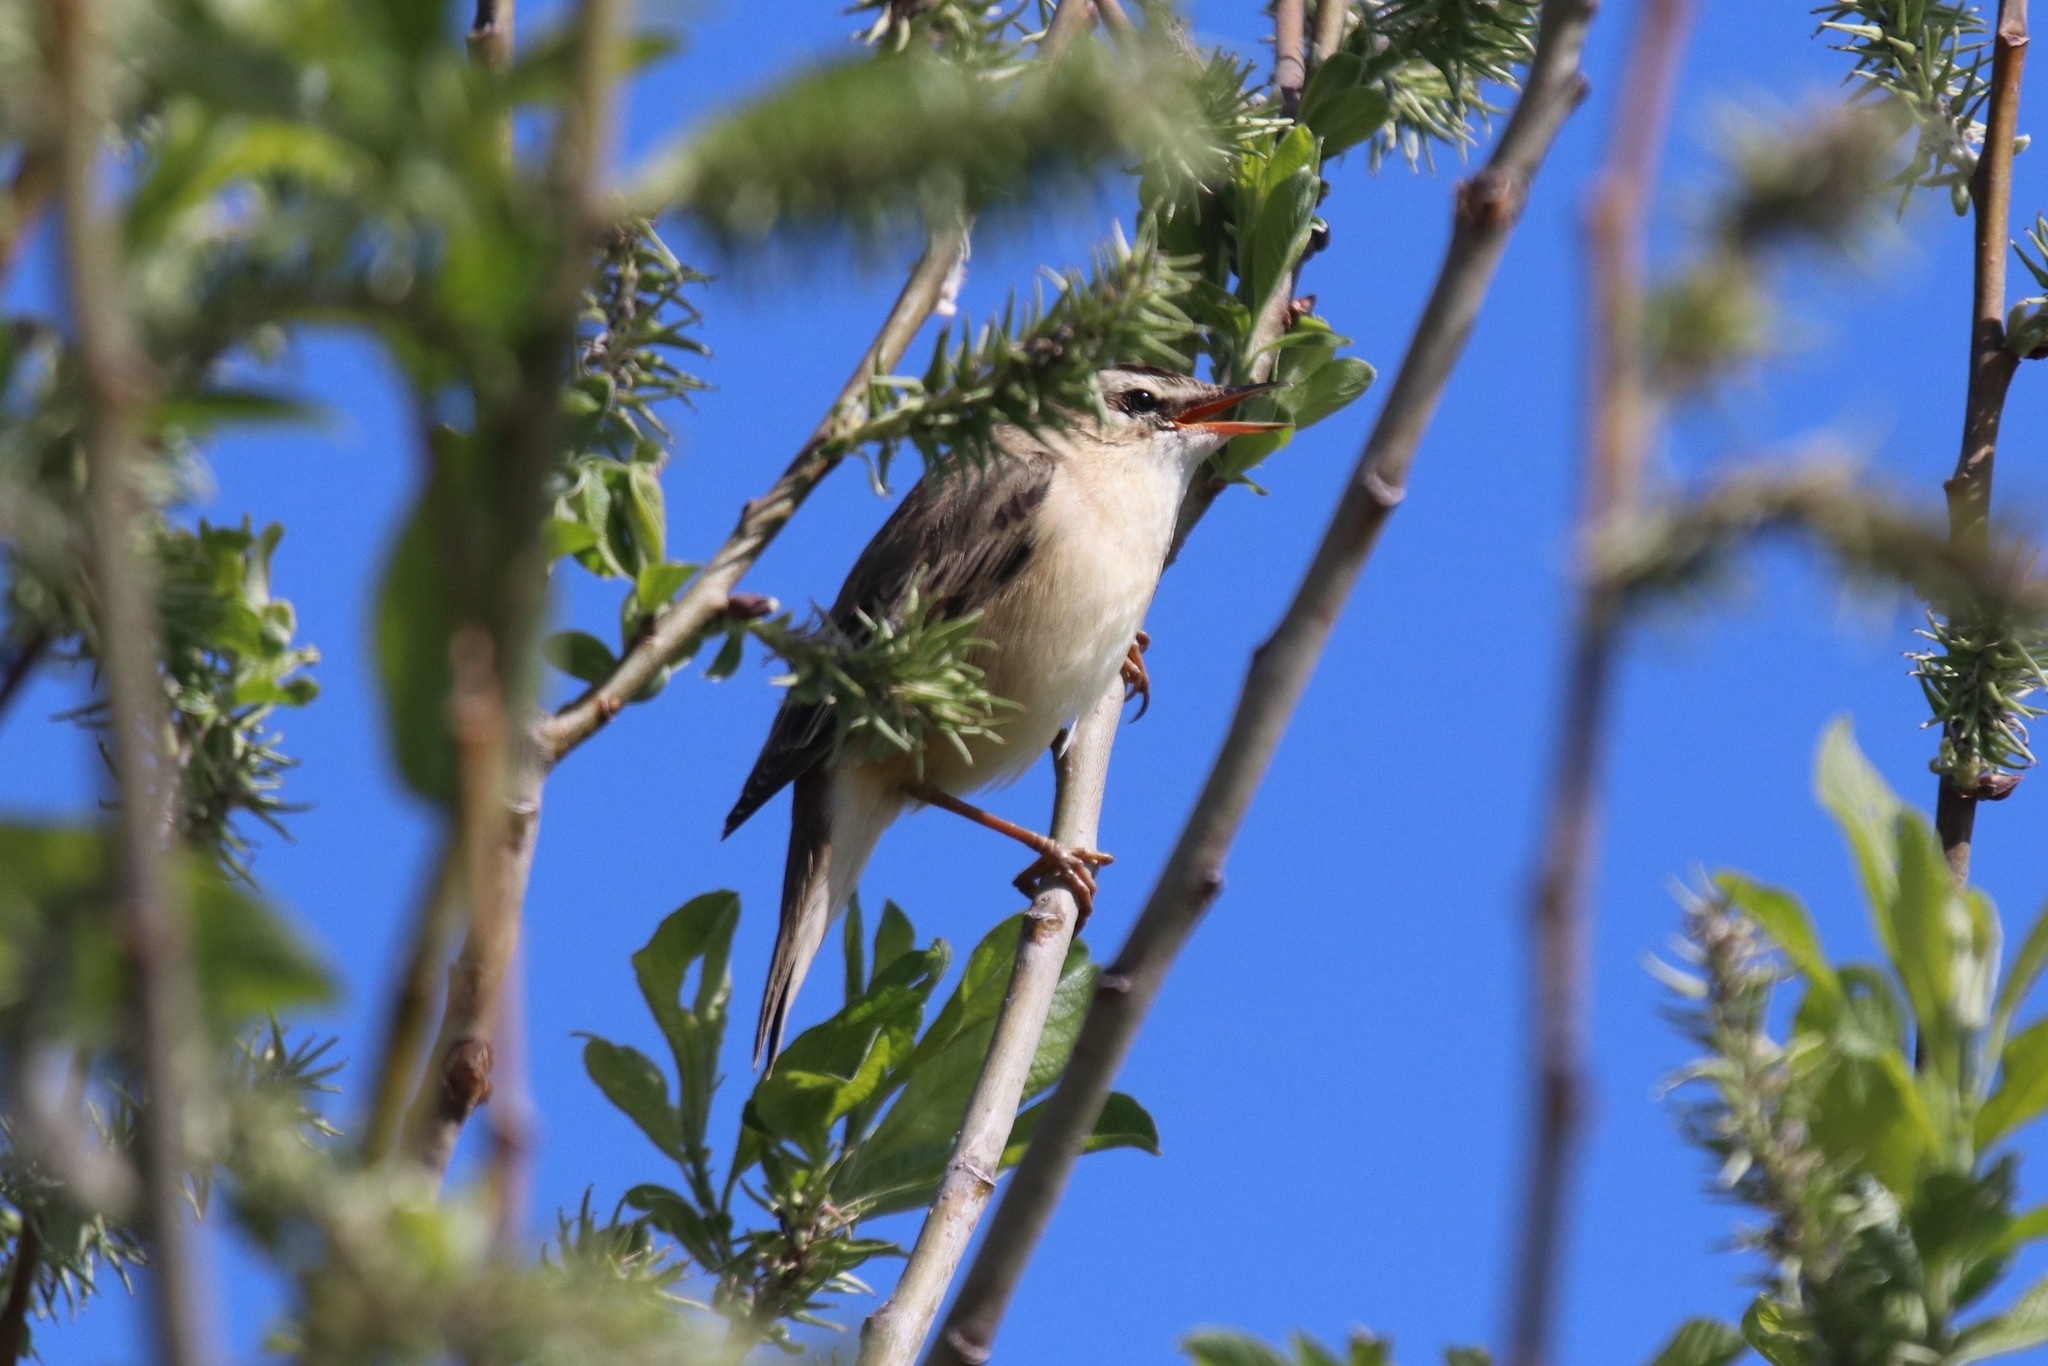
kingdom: Animalia
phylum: Chordata
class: Aves
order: Passeriformes
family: Acrocephalidae
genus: Acrocephalus
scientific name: Acrocephalus schoenobaenus
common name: Sedge warbler
